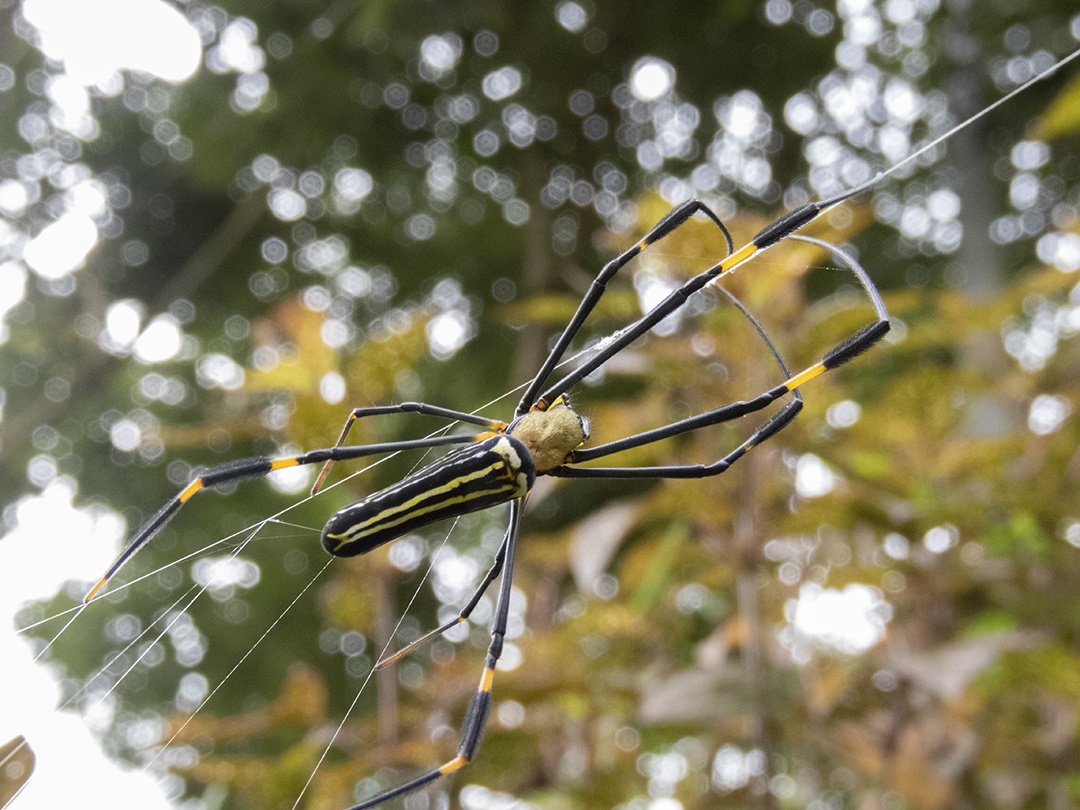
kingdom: Animalia
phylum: Arthropoda
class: Arachnida
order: Araneae
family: Araneidae
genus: Nephila
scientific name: Nephila pilipes
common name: Giant golden orb weaver
